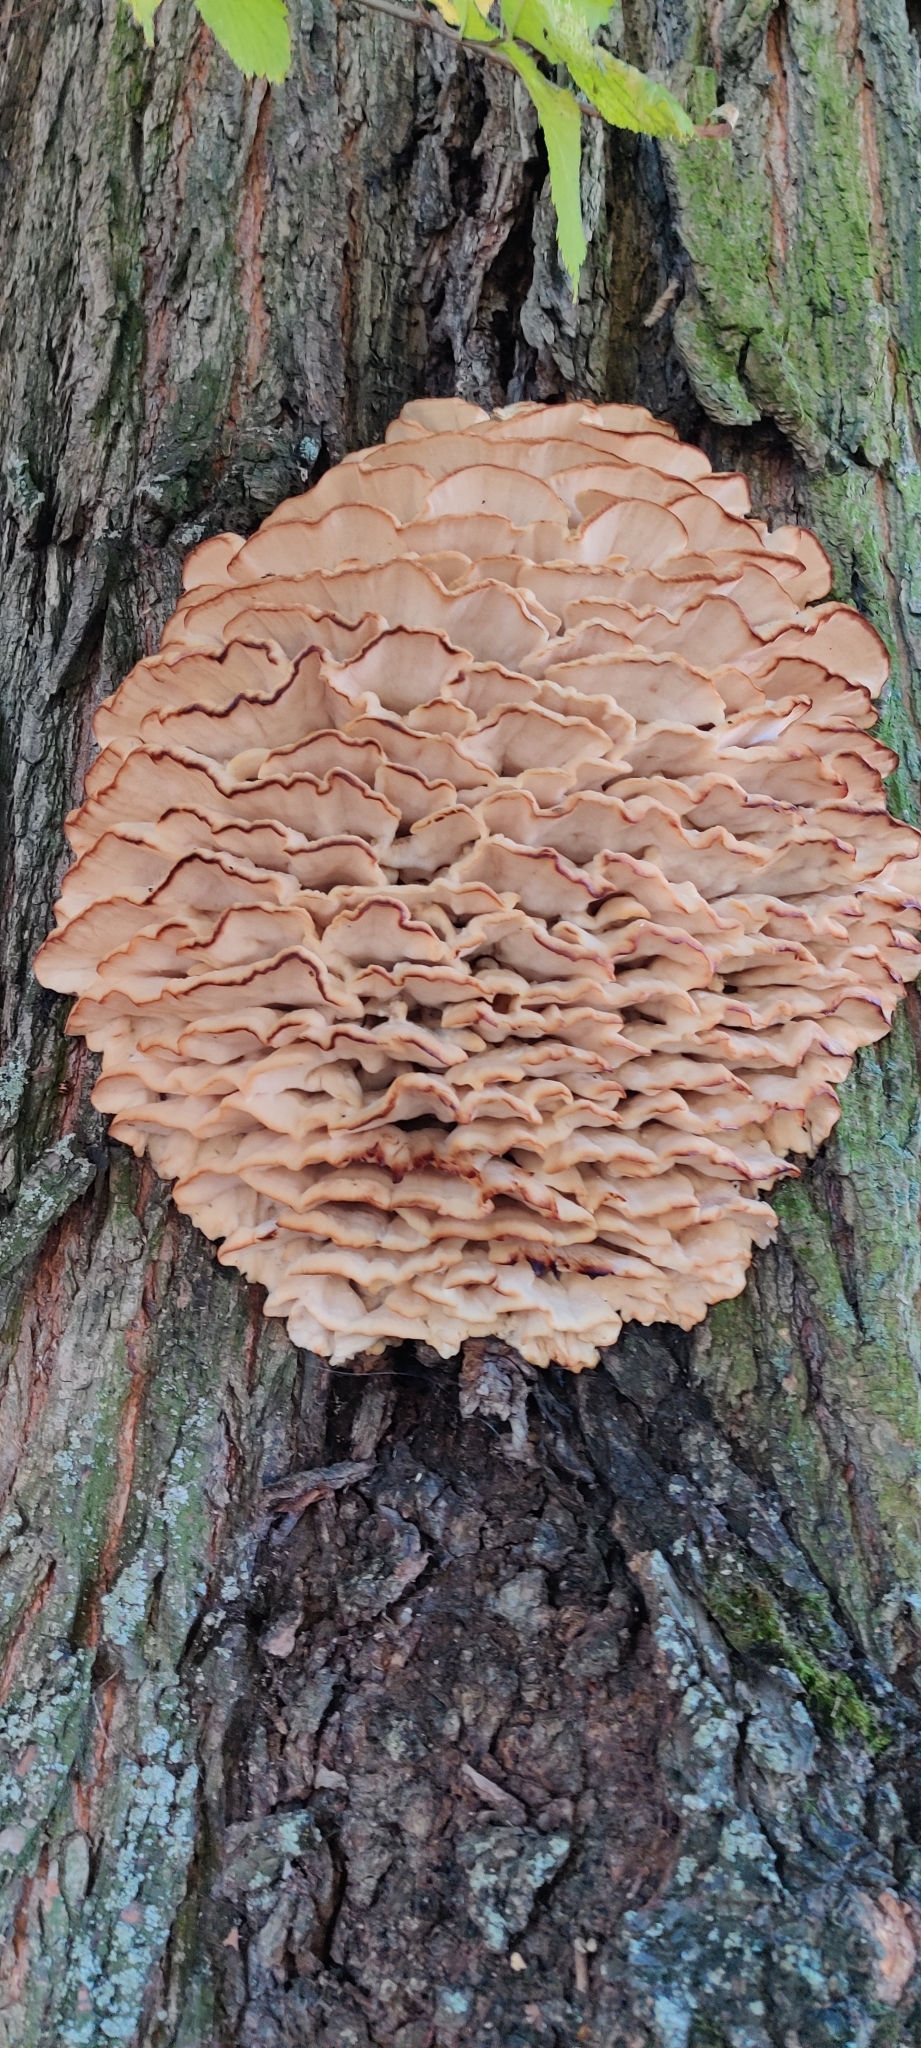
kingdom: Fungi
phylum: Basidiomycota
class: Agaricomycetes
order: Polyporales
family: Meruliaceae
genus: Climacodon
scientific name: Climacodon septentrionalis
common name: Northern tooth
